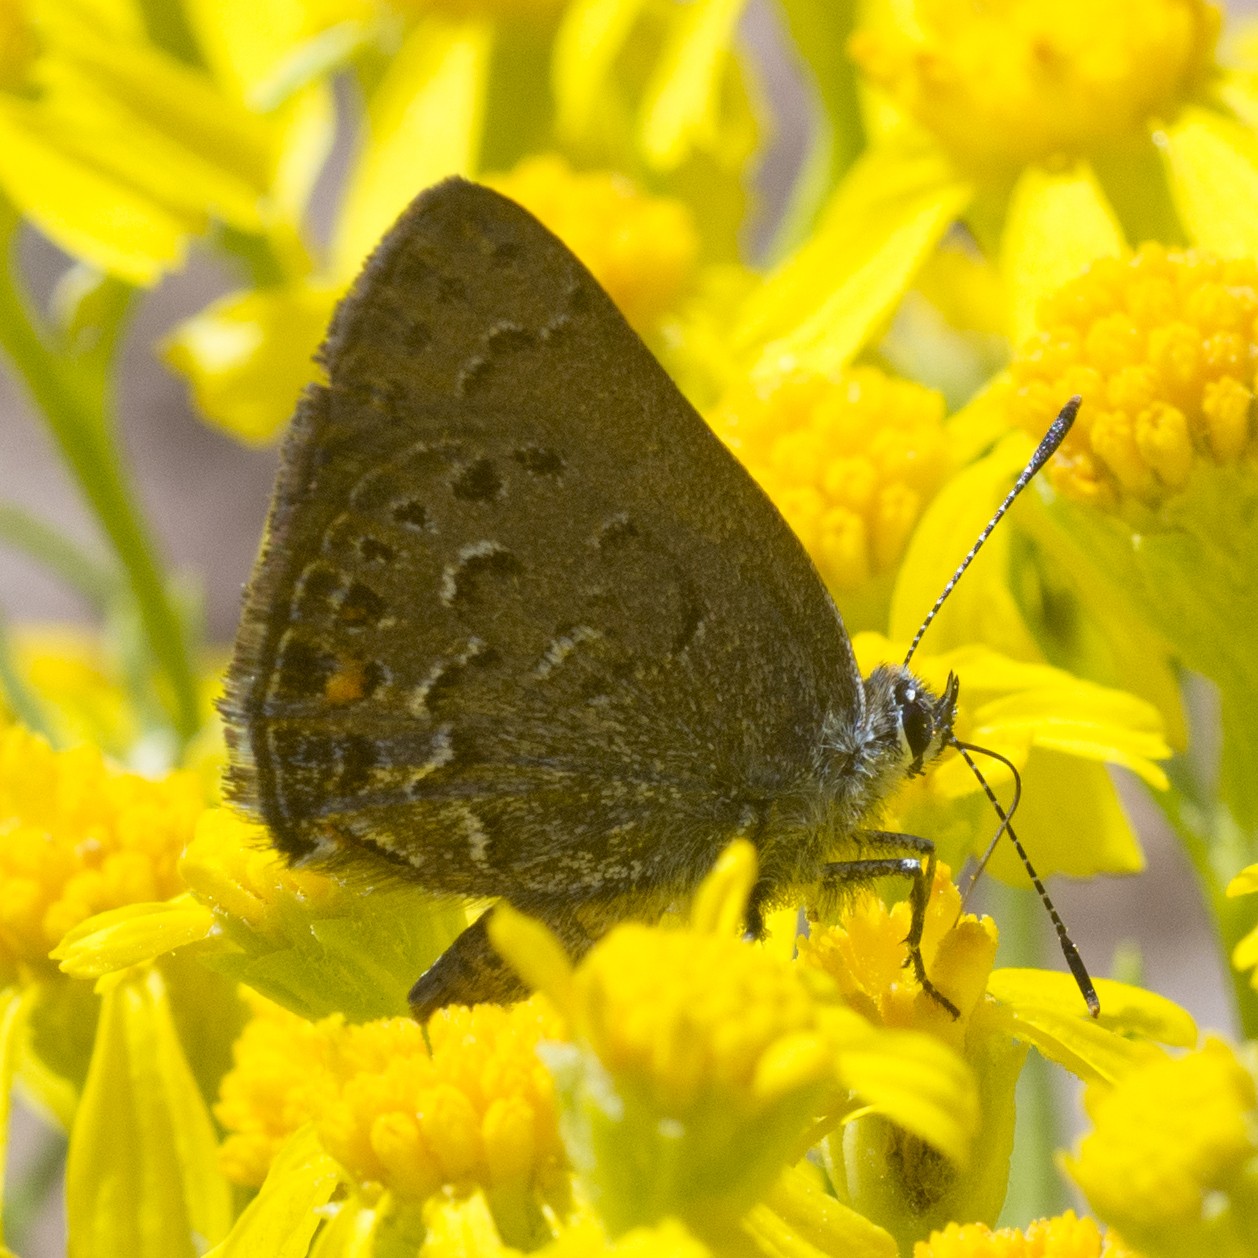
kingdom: Animalia
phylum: Arthropoda
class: Insecta
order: Lepidoptera
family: Lycaenidae
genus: Satyrium
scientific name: Satyrium behrii
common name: Behr's hairstreak
